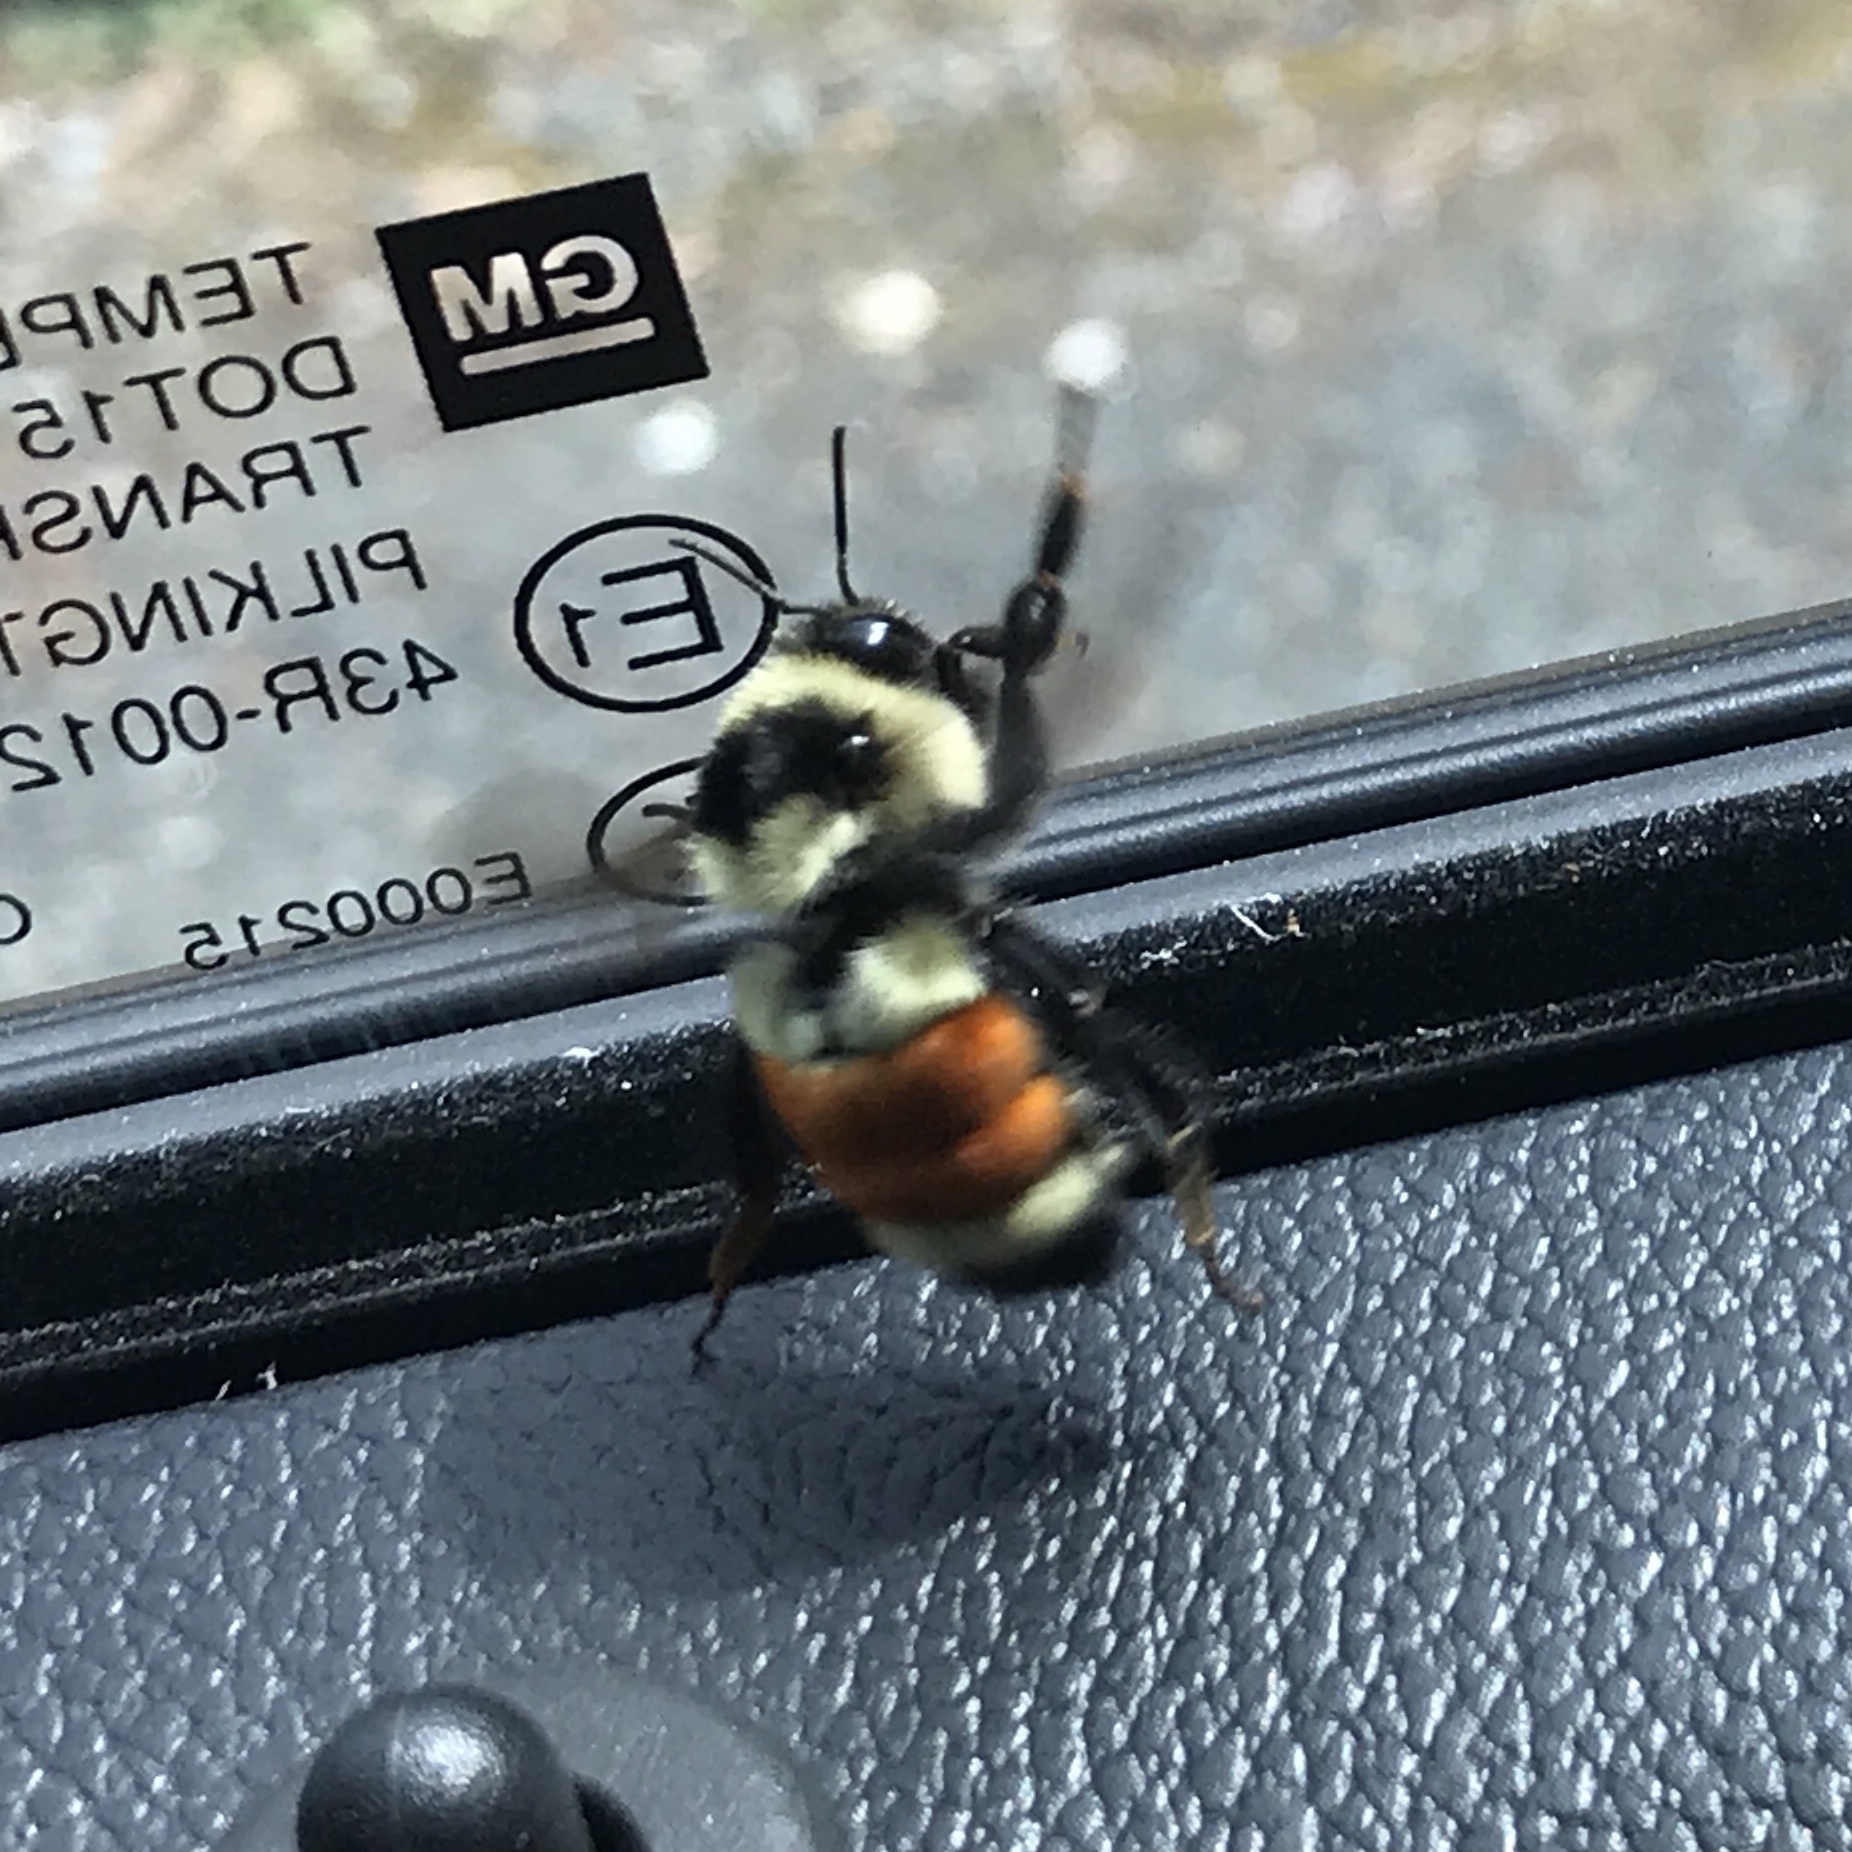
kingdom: Animalia
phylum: Arthropoda
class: Insecta
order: Hymenoptera
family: Apidae
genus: Bombus
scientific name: Bombus ternarius
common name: Tri-colored bumble bee
